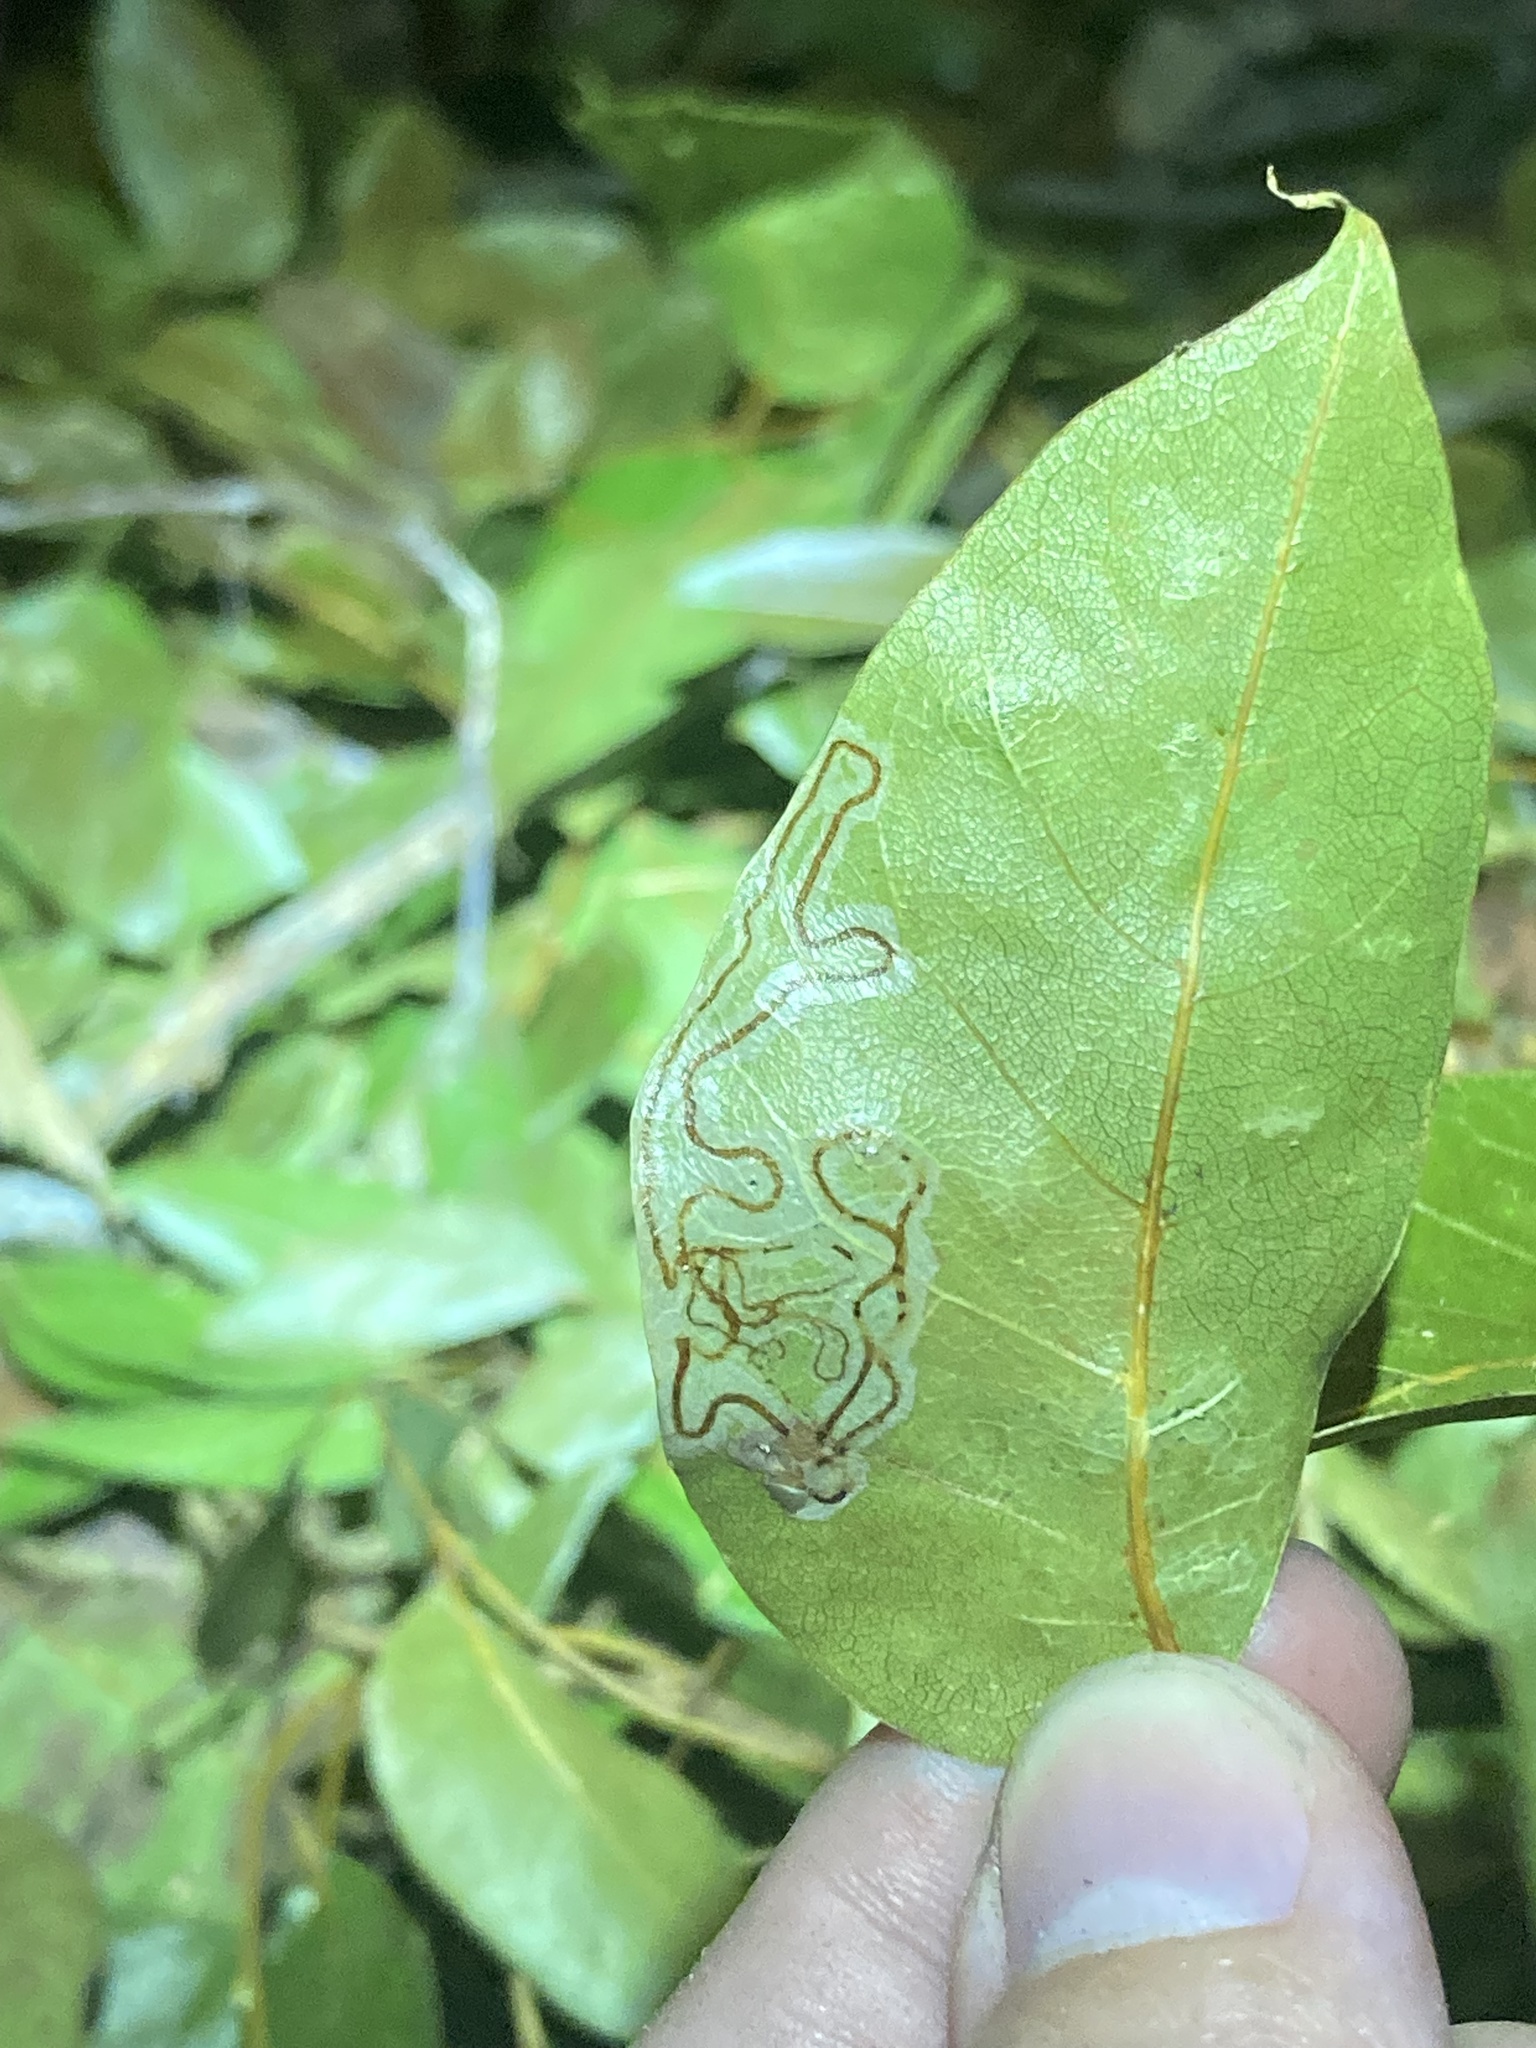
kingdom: Animalia
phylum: Arthropoda
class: Insecta
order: Lepidoptera
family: Gracillariidae
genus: Phyllocnistis
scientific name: Phyllocnistis meliacella
